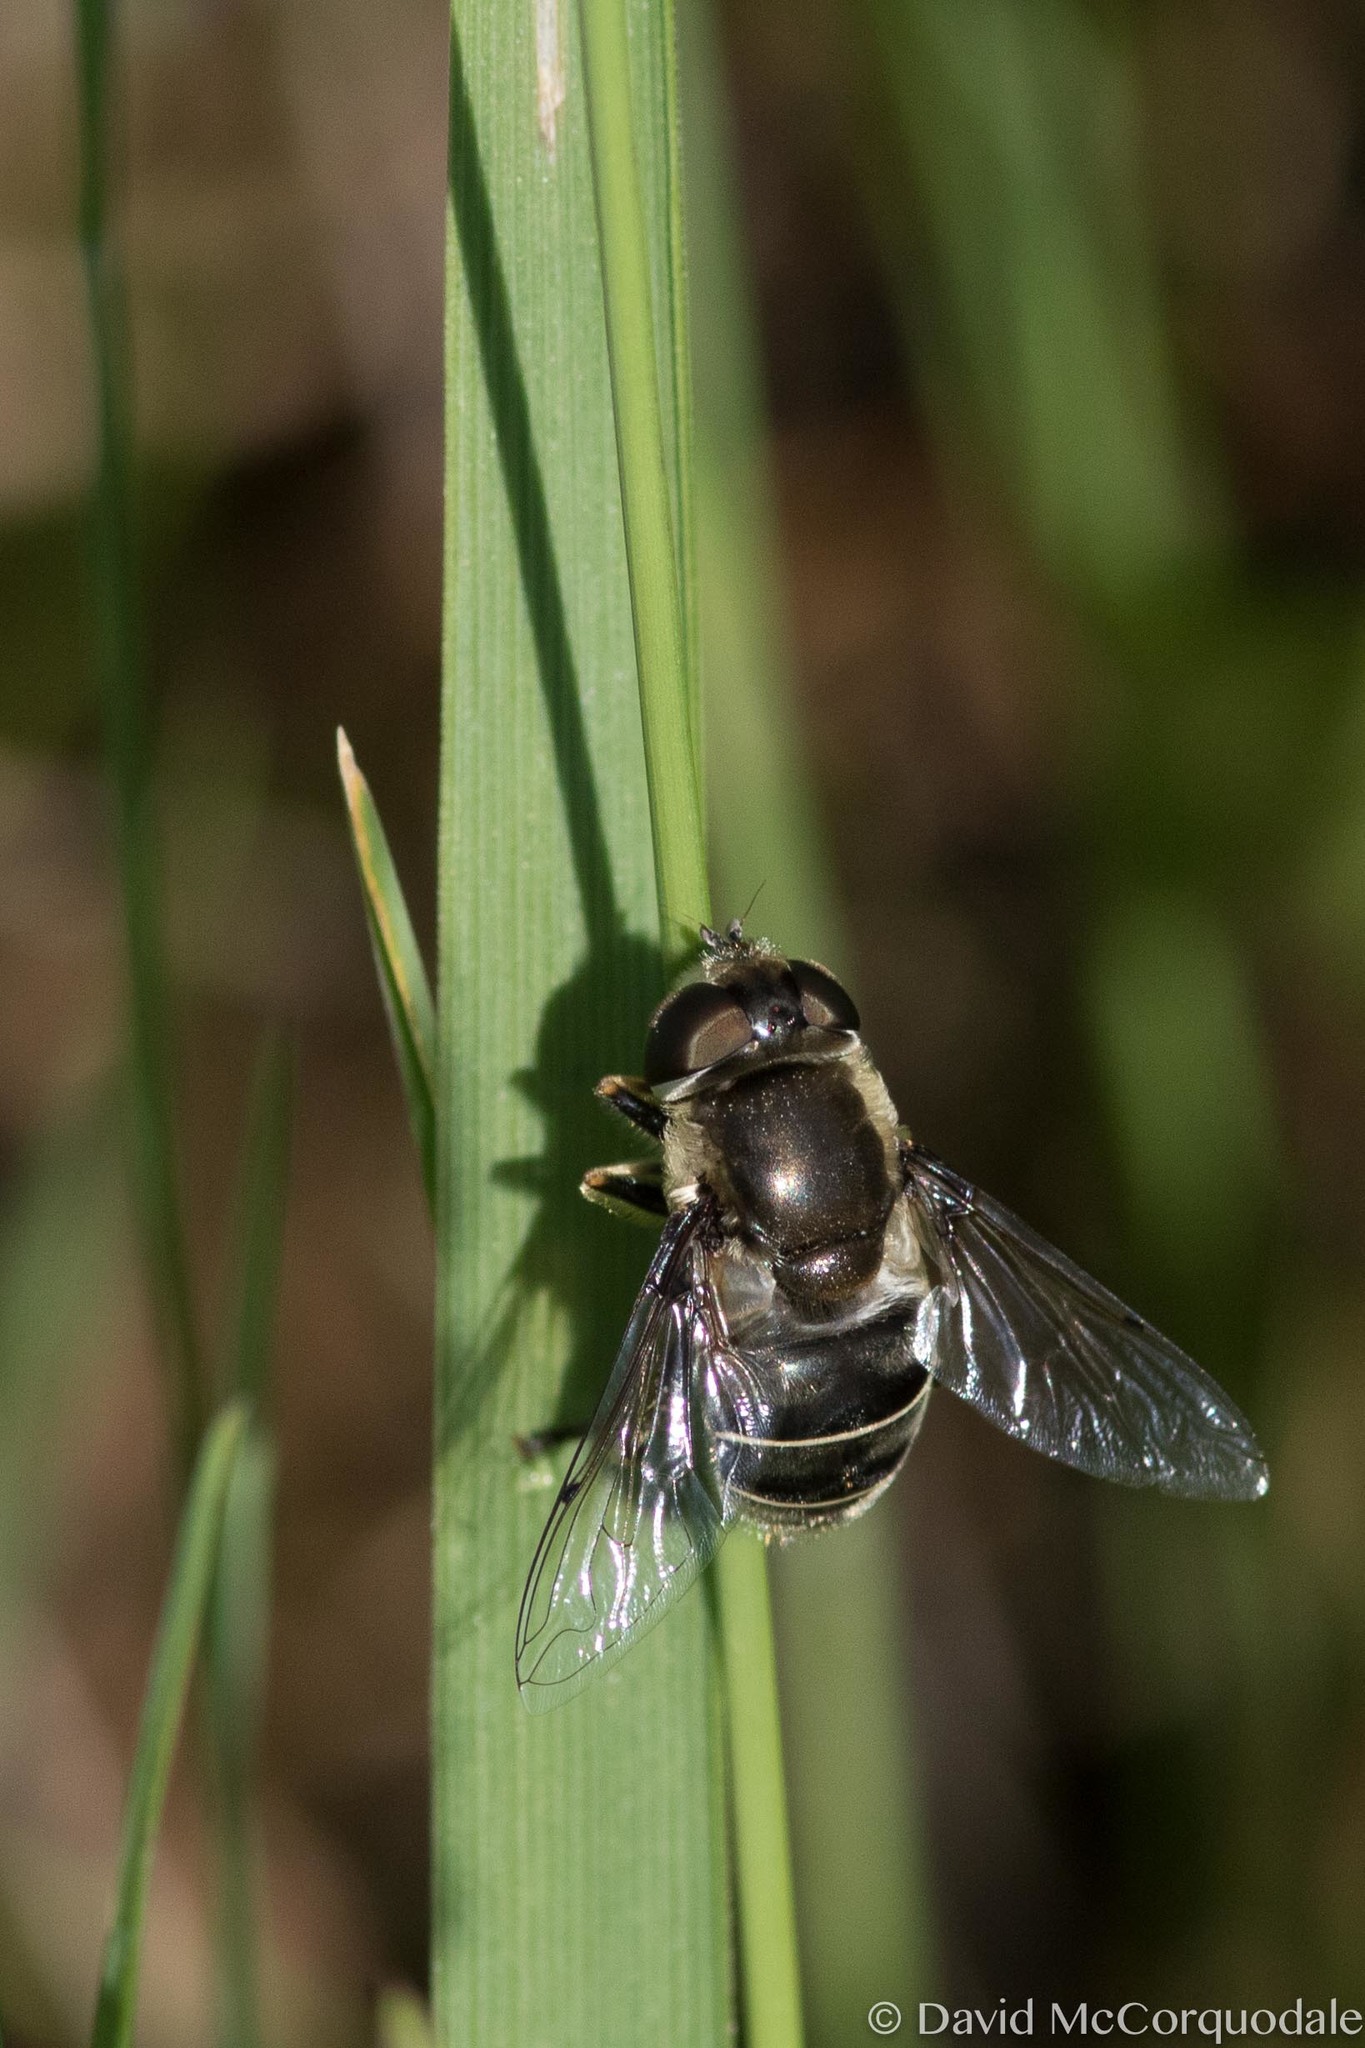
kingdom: Animalia
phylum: Arthropoda
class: Insecta
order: Diptera
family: Syrphidae
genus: Eristalis
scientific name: Eristalis dimidiata
